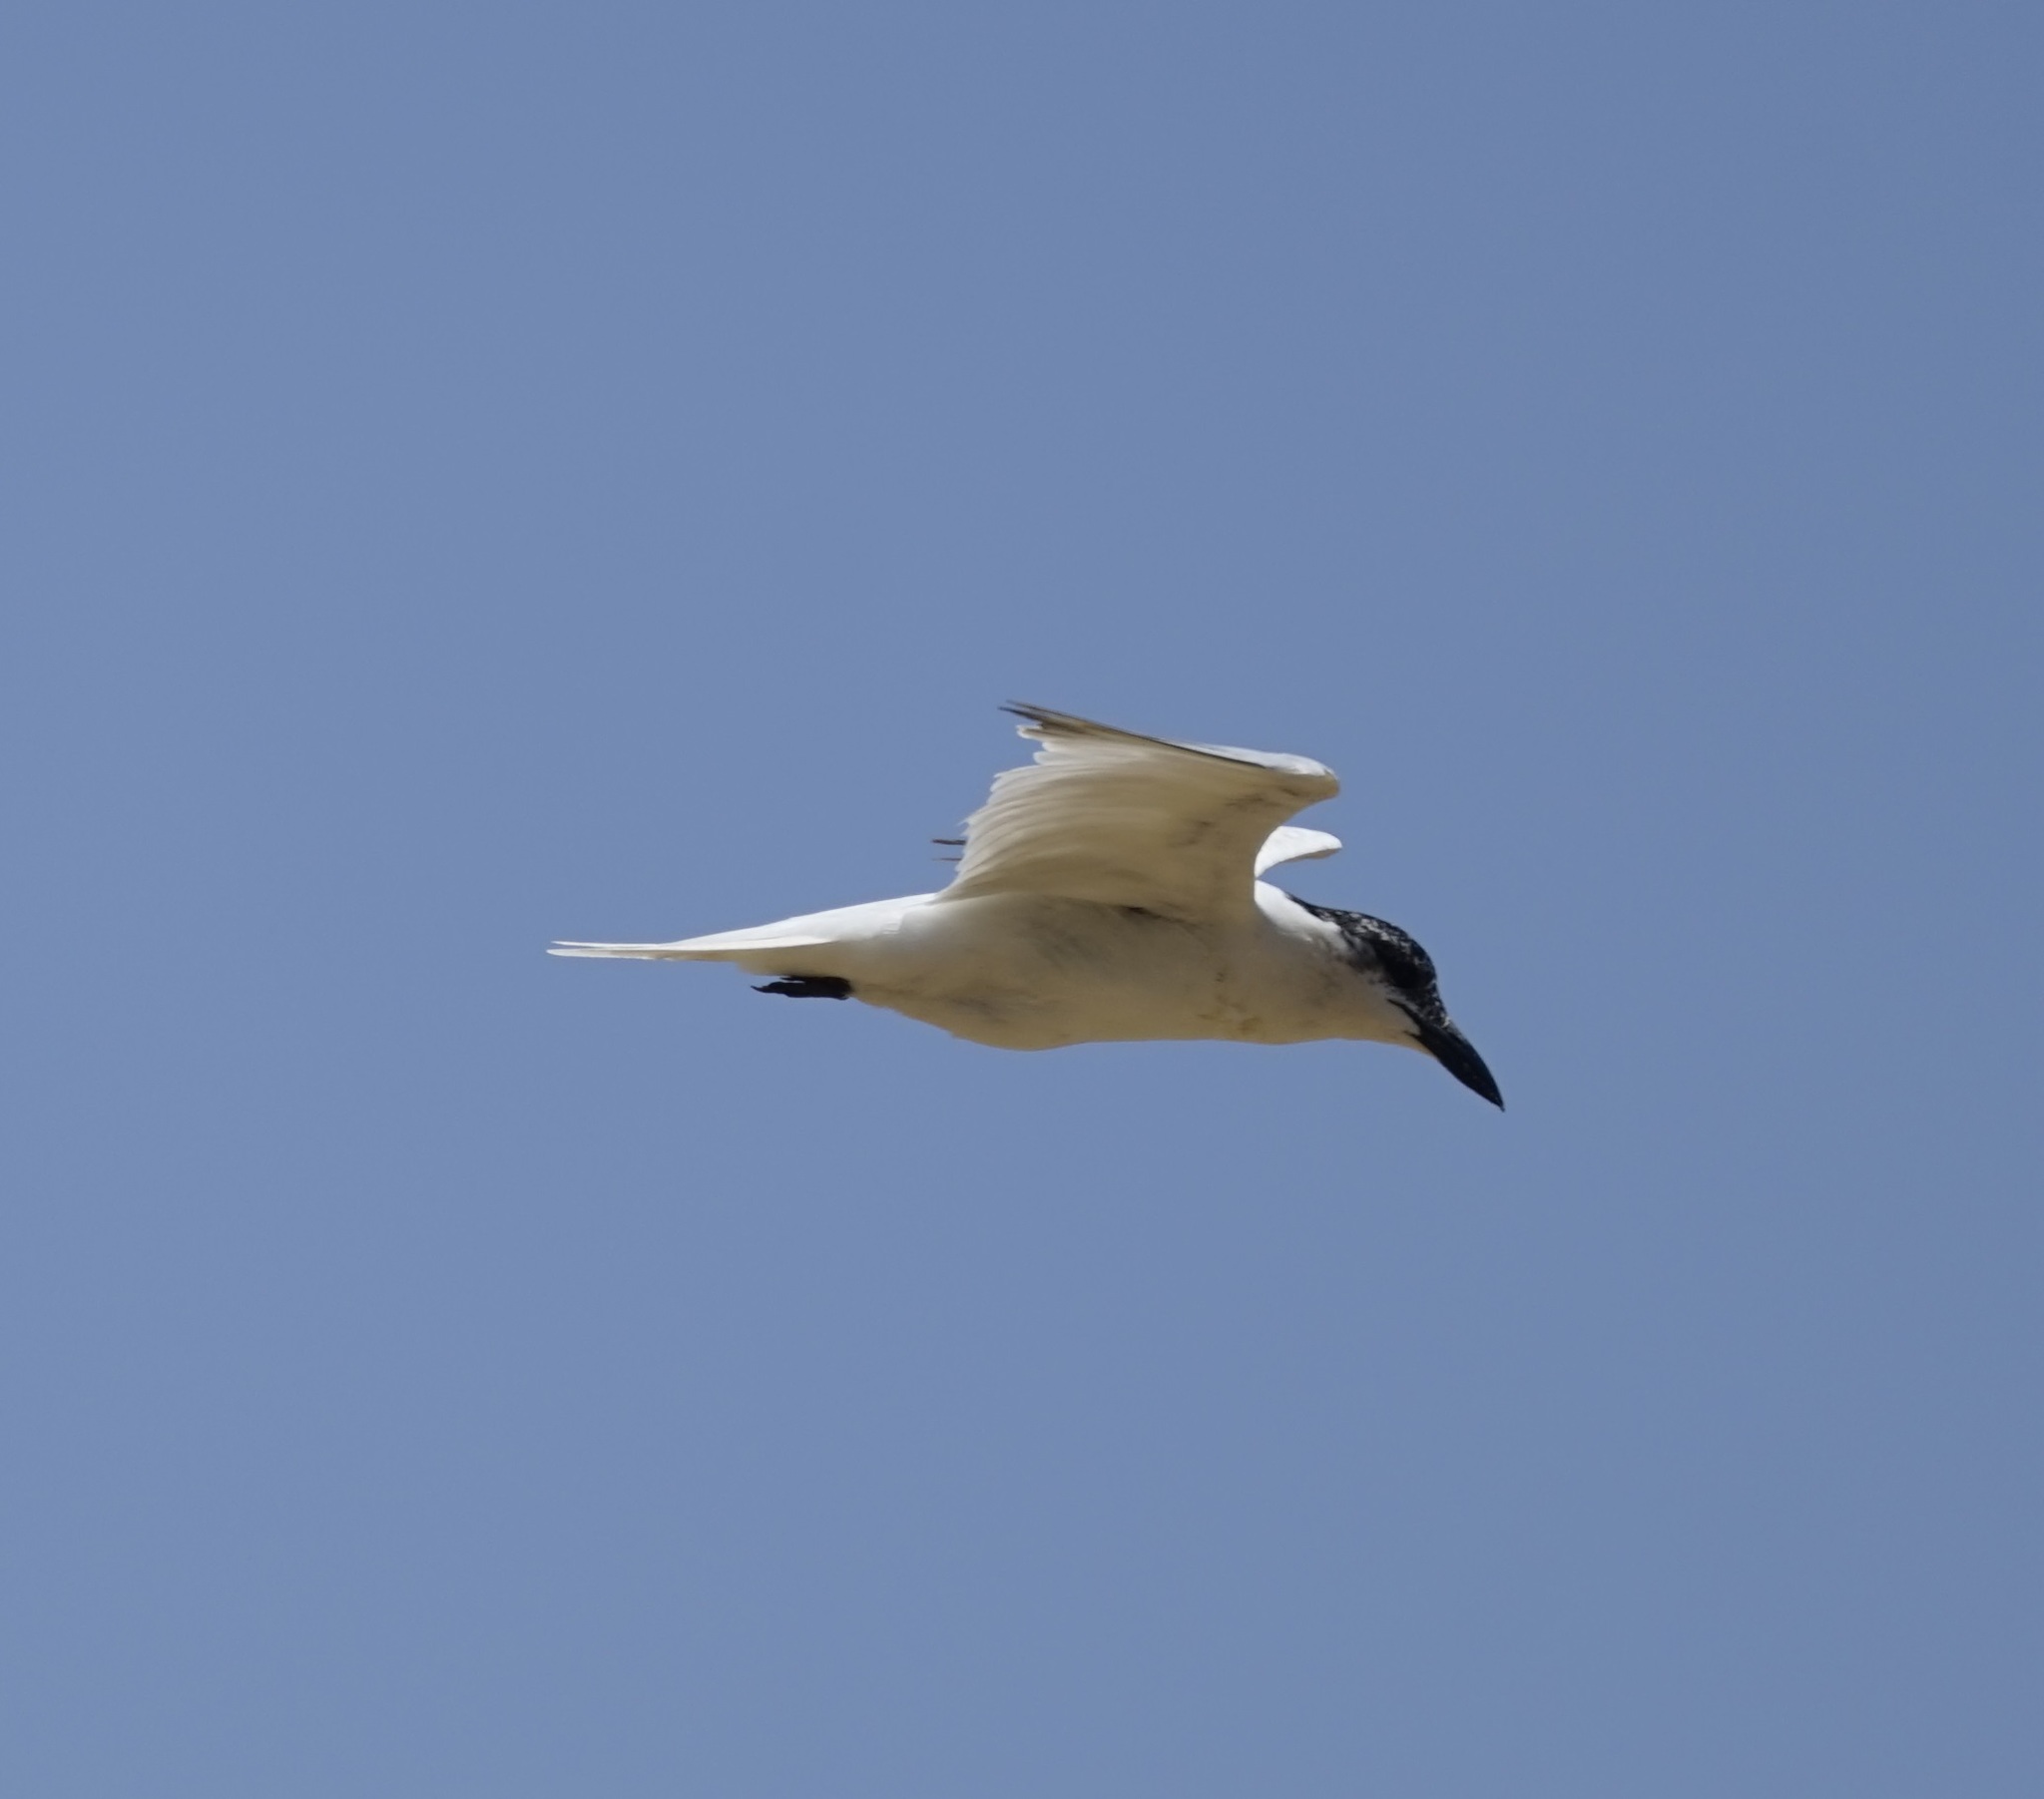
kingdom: Animalia
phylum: Chordata
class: Aves
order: Charadriiformes
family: Laridae
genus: Gelochelidon
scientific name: Gelochelidon macrotarsa
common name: Australian tern
